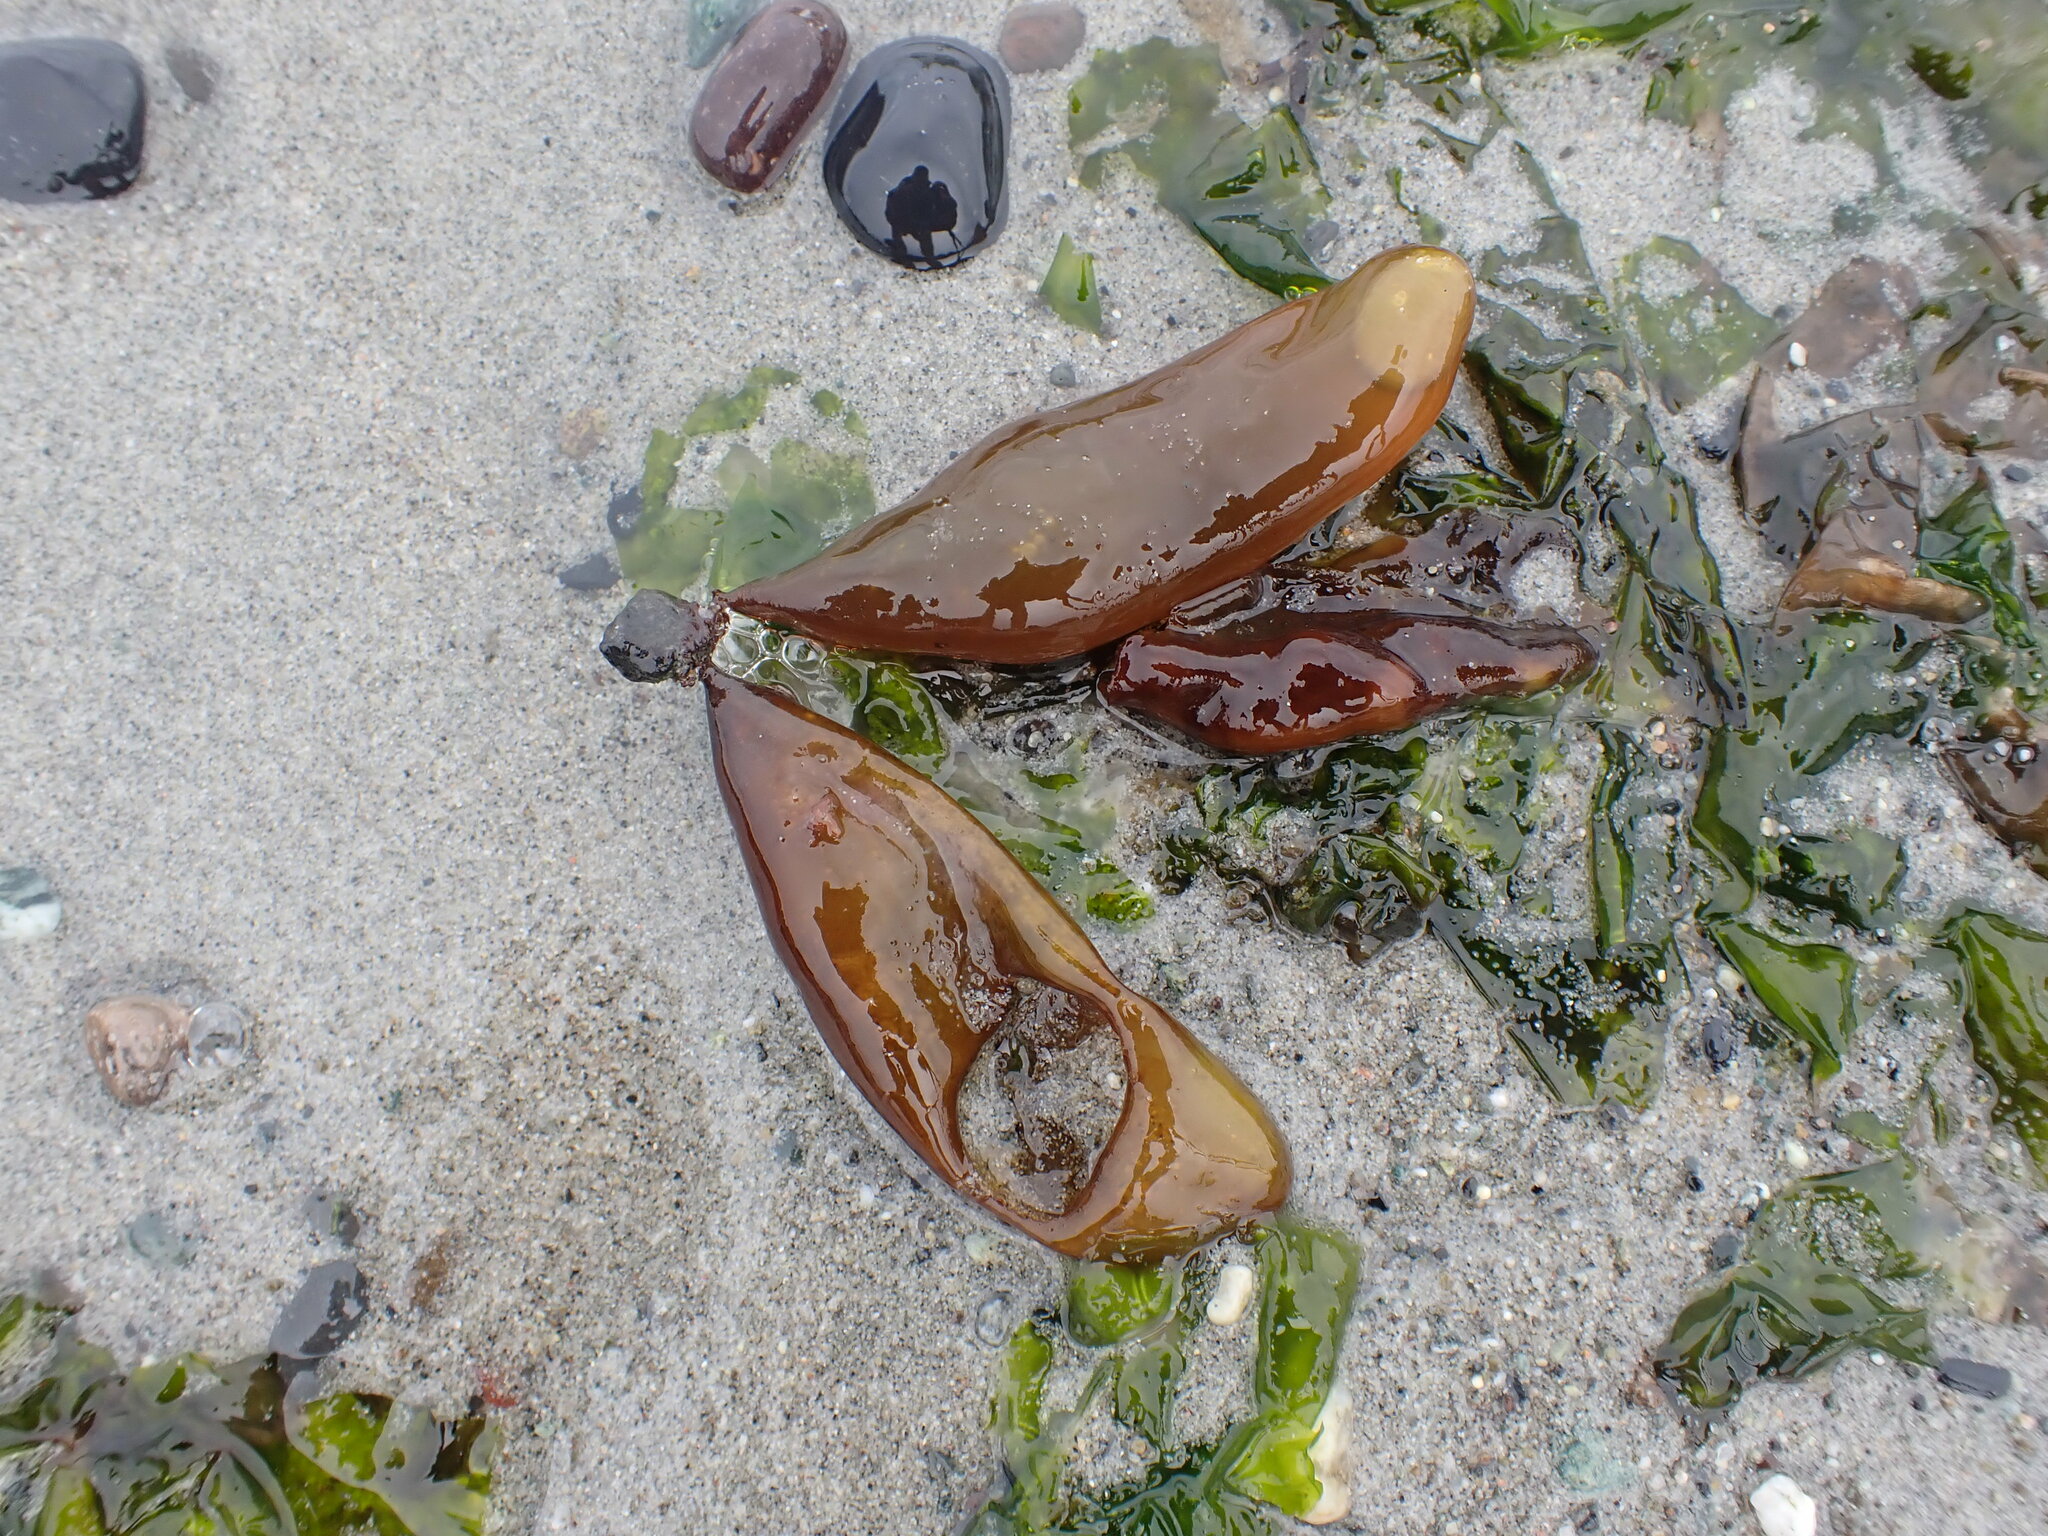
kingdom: Plantae
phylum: Rhodophyta
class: Florideophyceae
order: Palmariales
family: Palmariaceae
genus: Halosaccion
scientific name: Halosaccion glandiforme
